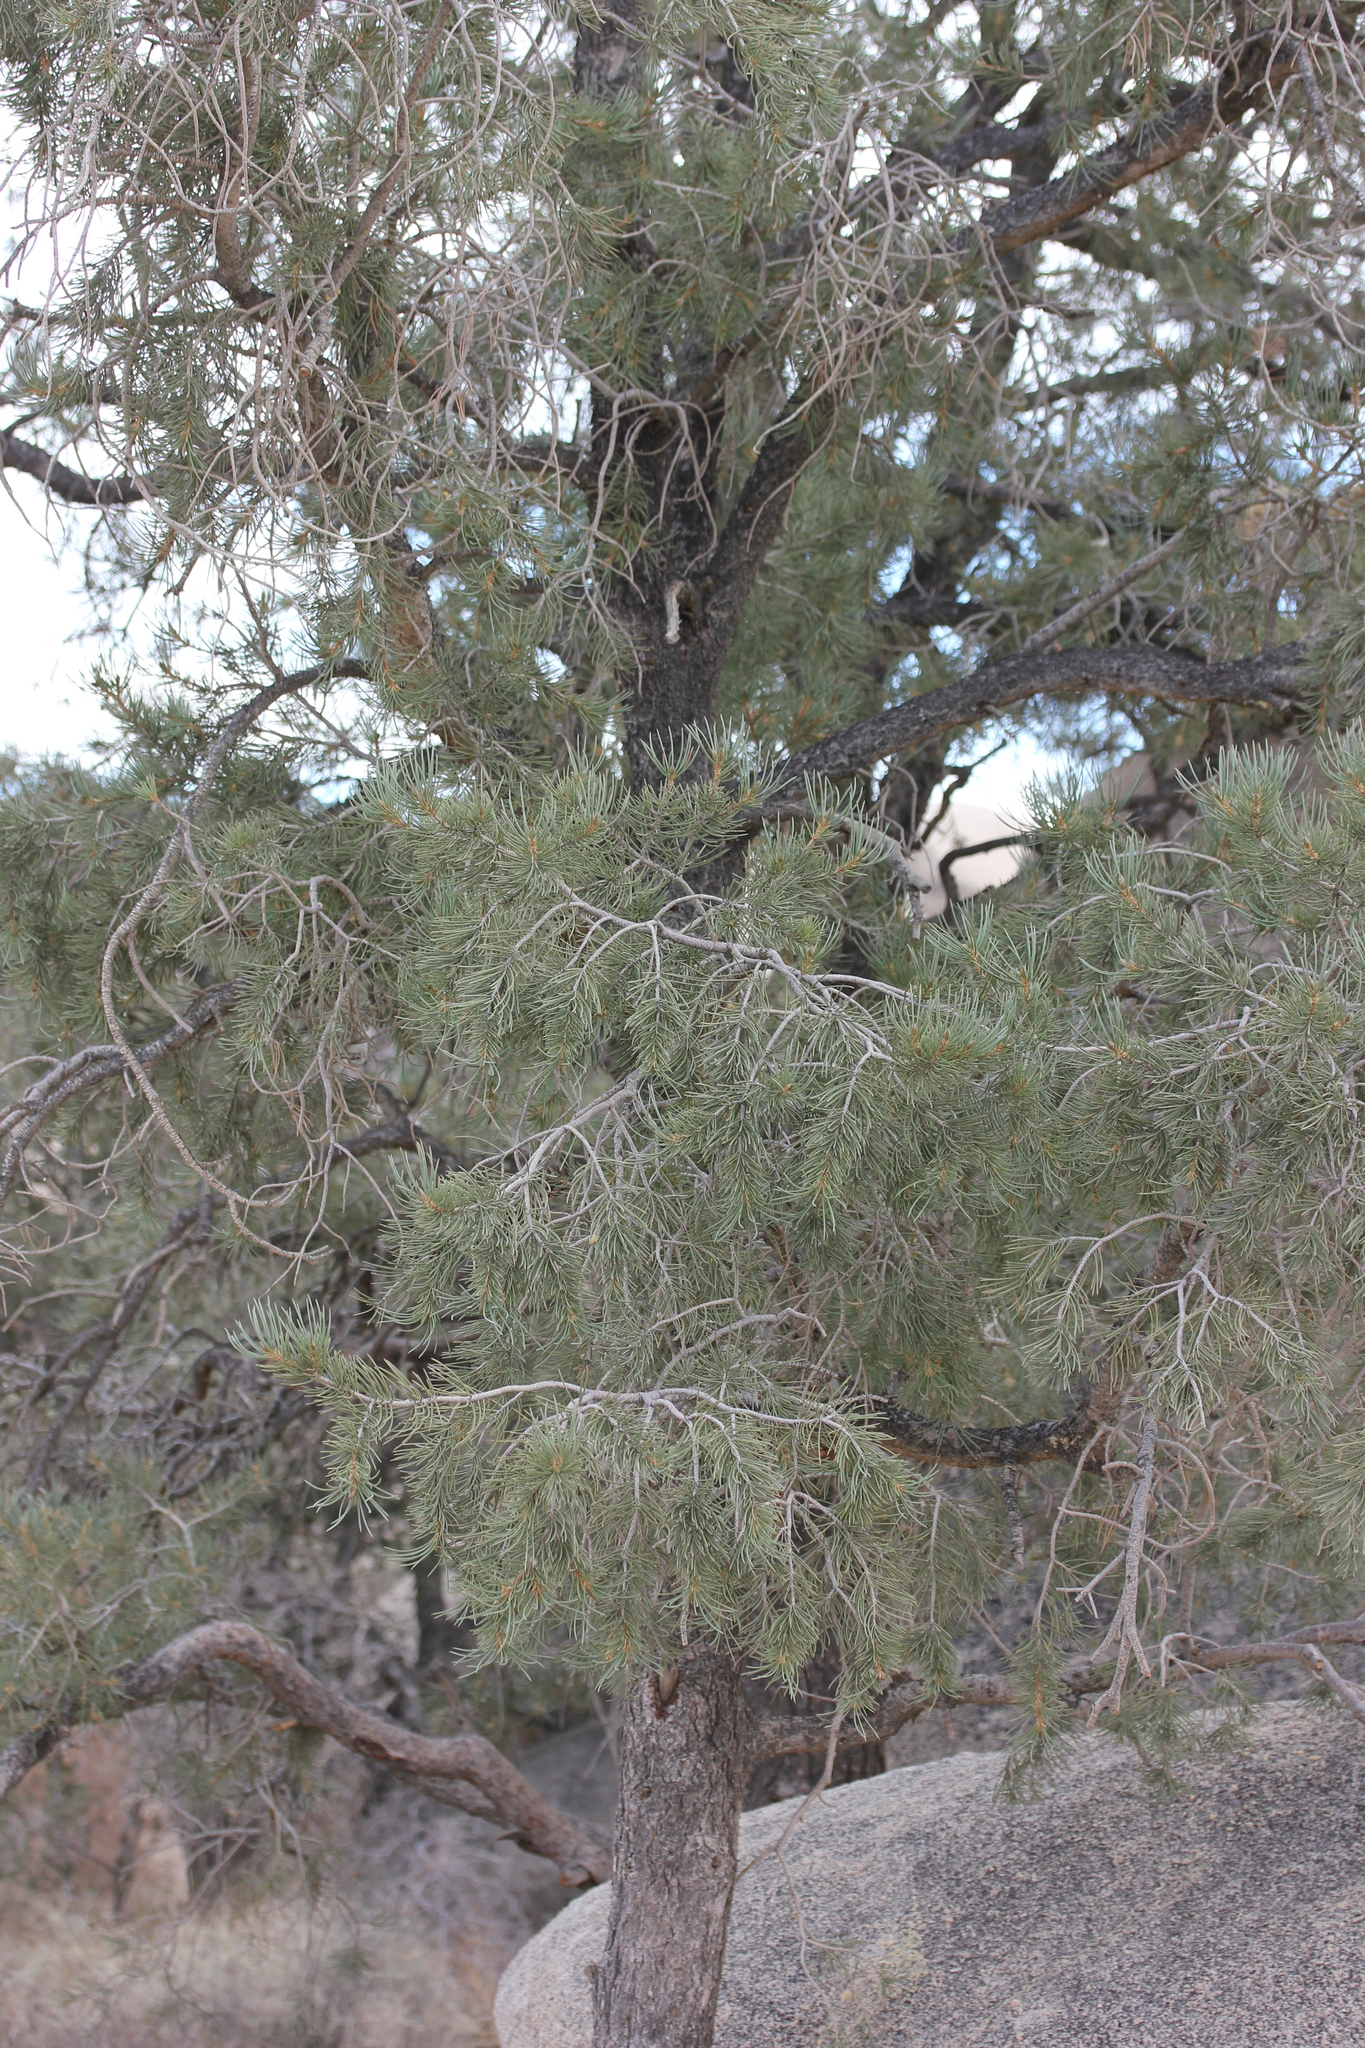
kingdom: Plantae
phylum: Tracheophyta
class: Pinopsida
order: Pinales
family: Pinaceae
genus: Pinus
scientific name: Pinus monophylla
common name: One-leaved nut pine
